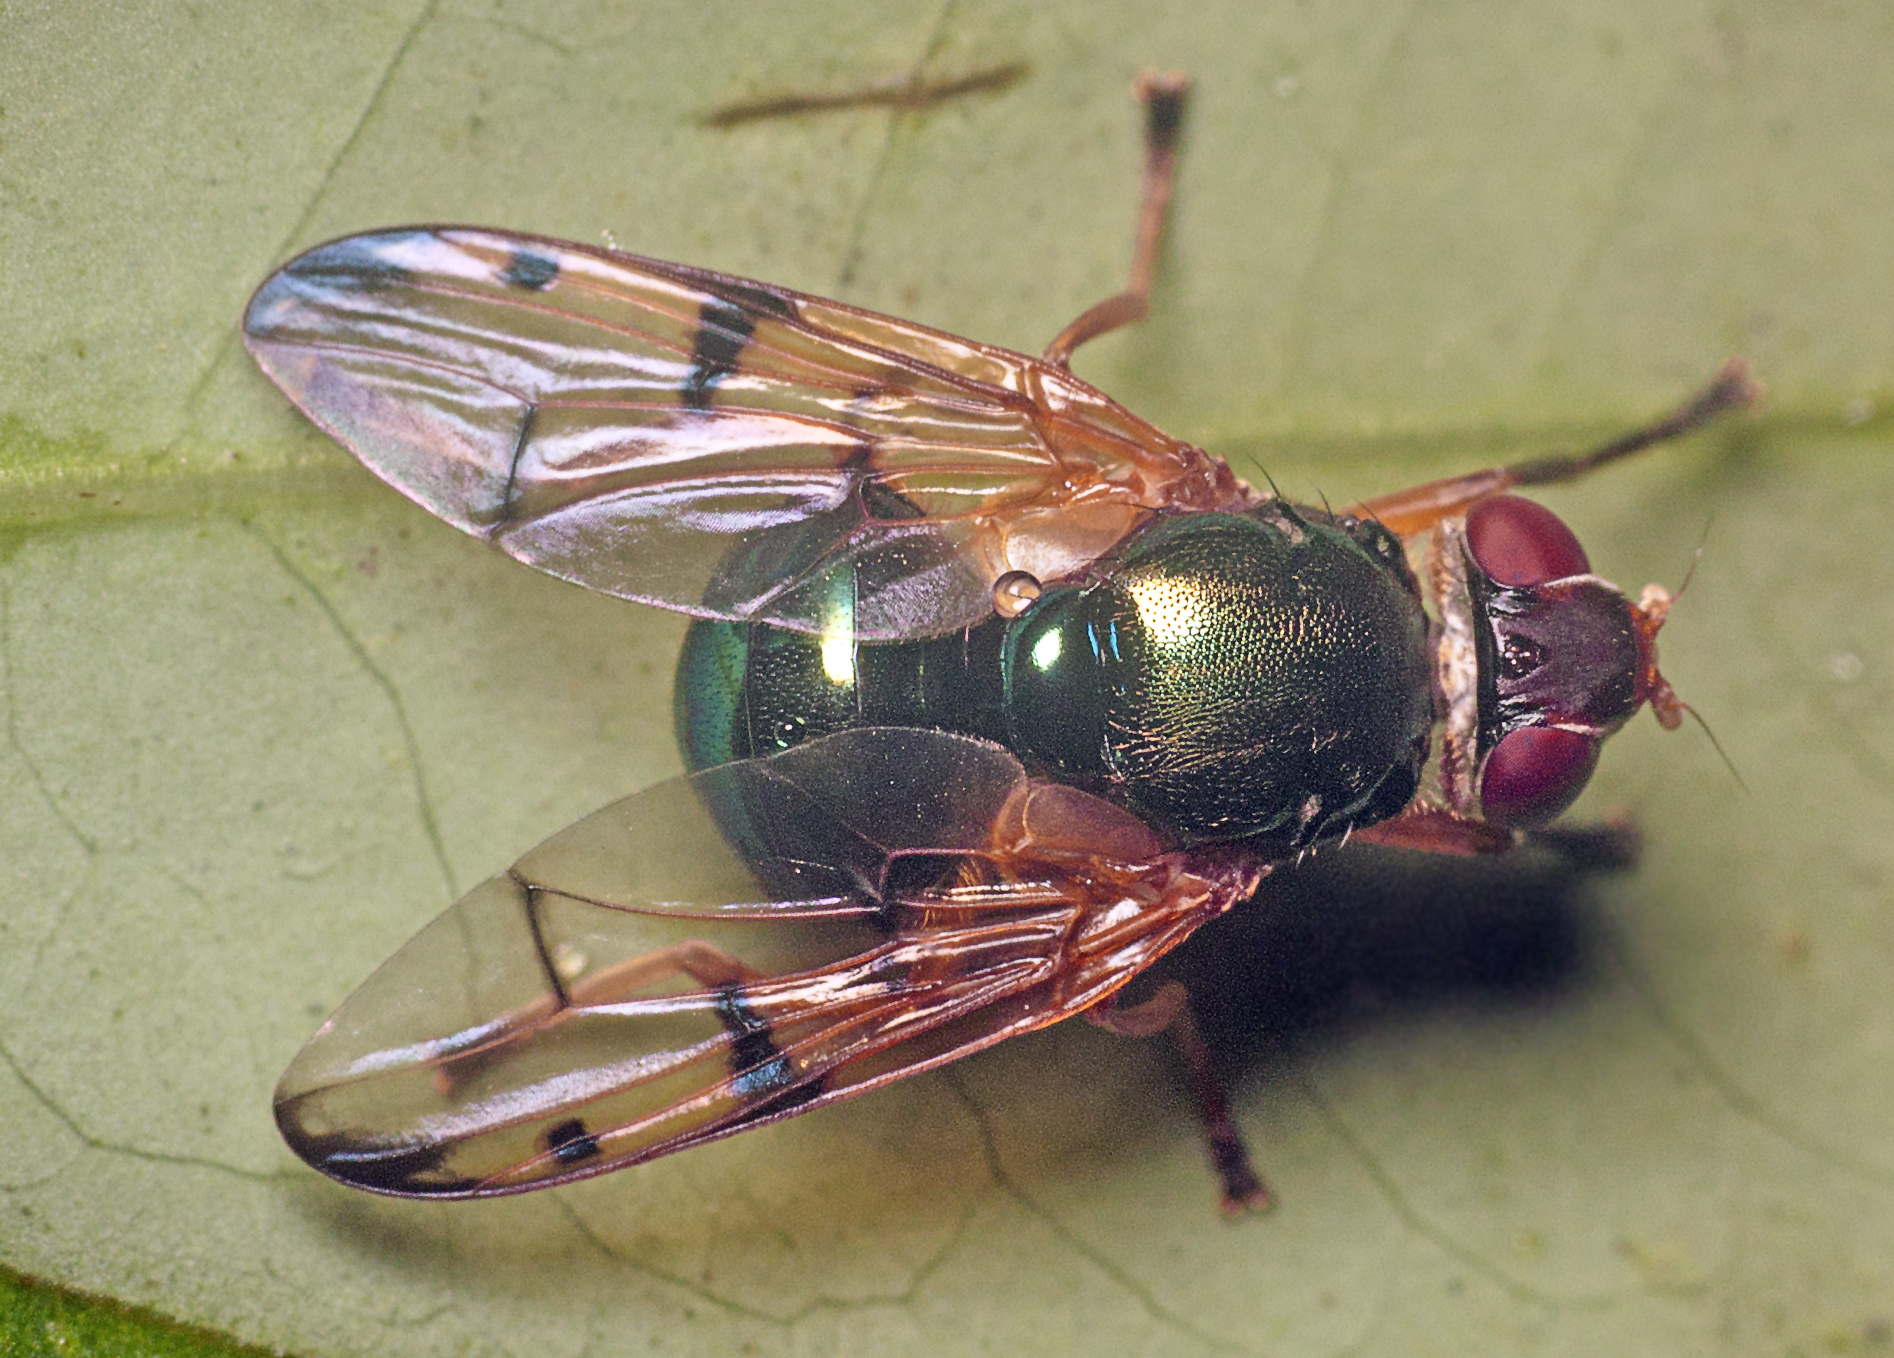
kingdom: Animalia
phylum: Arthropoda
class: Insecta
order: Diptera
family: Platystomatidae
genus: Lamprogaster
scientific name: Lamprogaster imperialis
